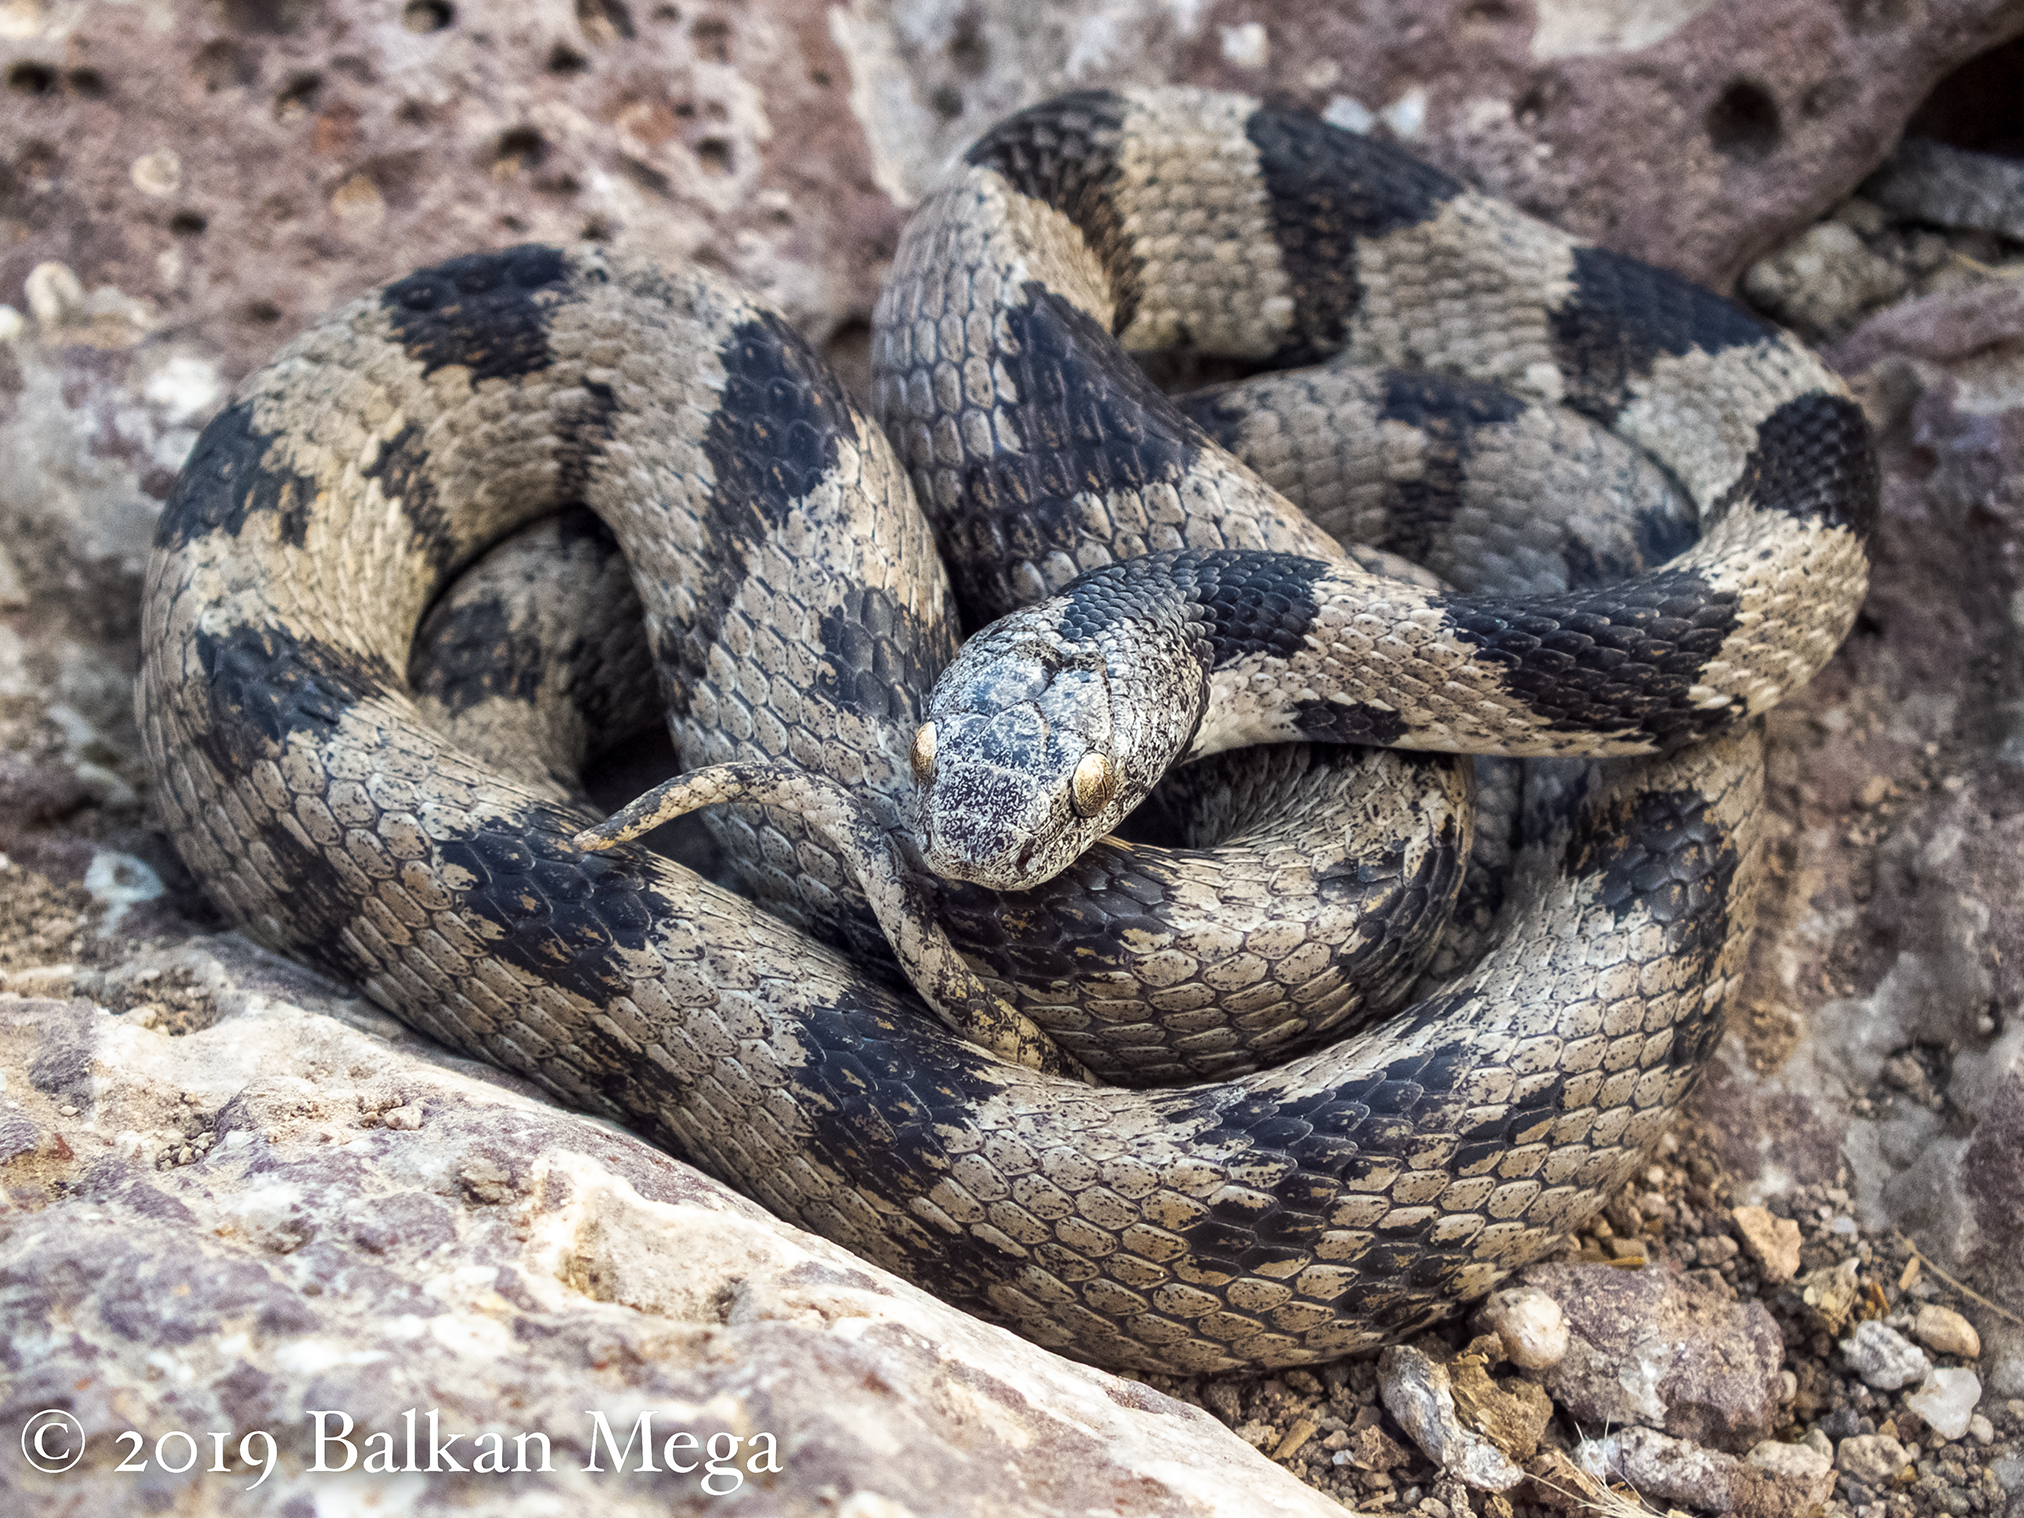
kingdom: Animalia
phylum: Chordata
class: Squamata
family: Colubridae
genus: Telescopus
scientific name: Telescopus fallax
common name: Cat snake
